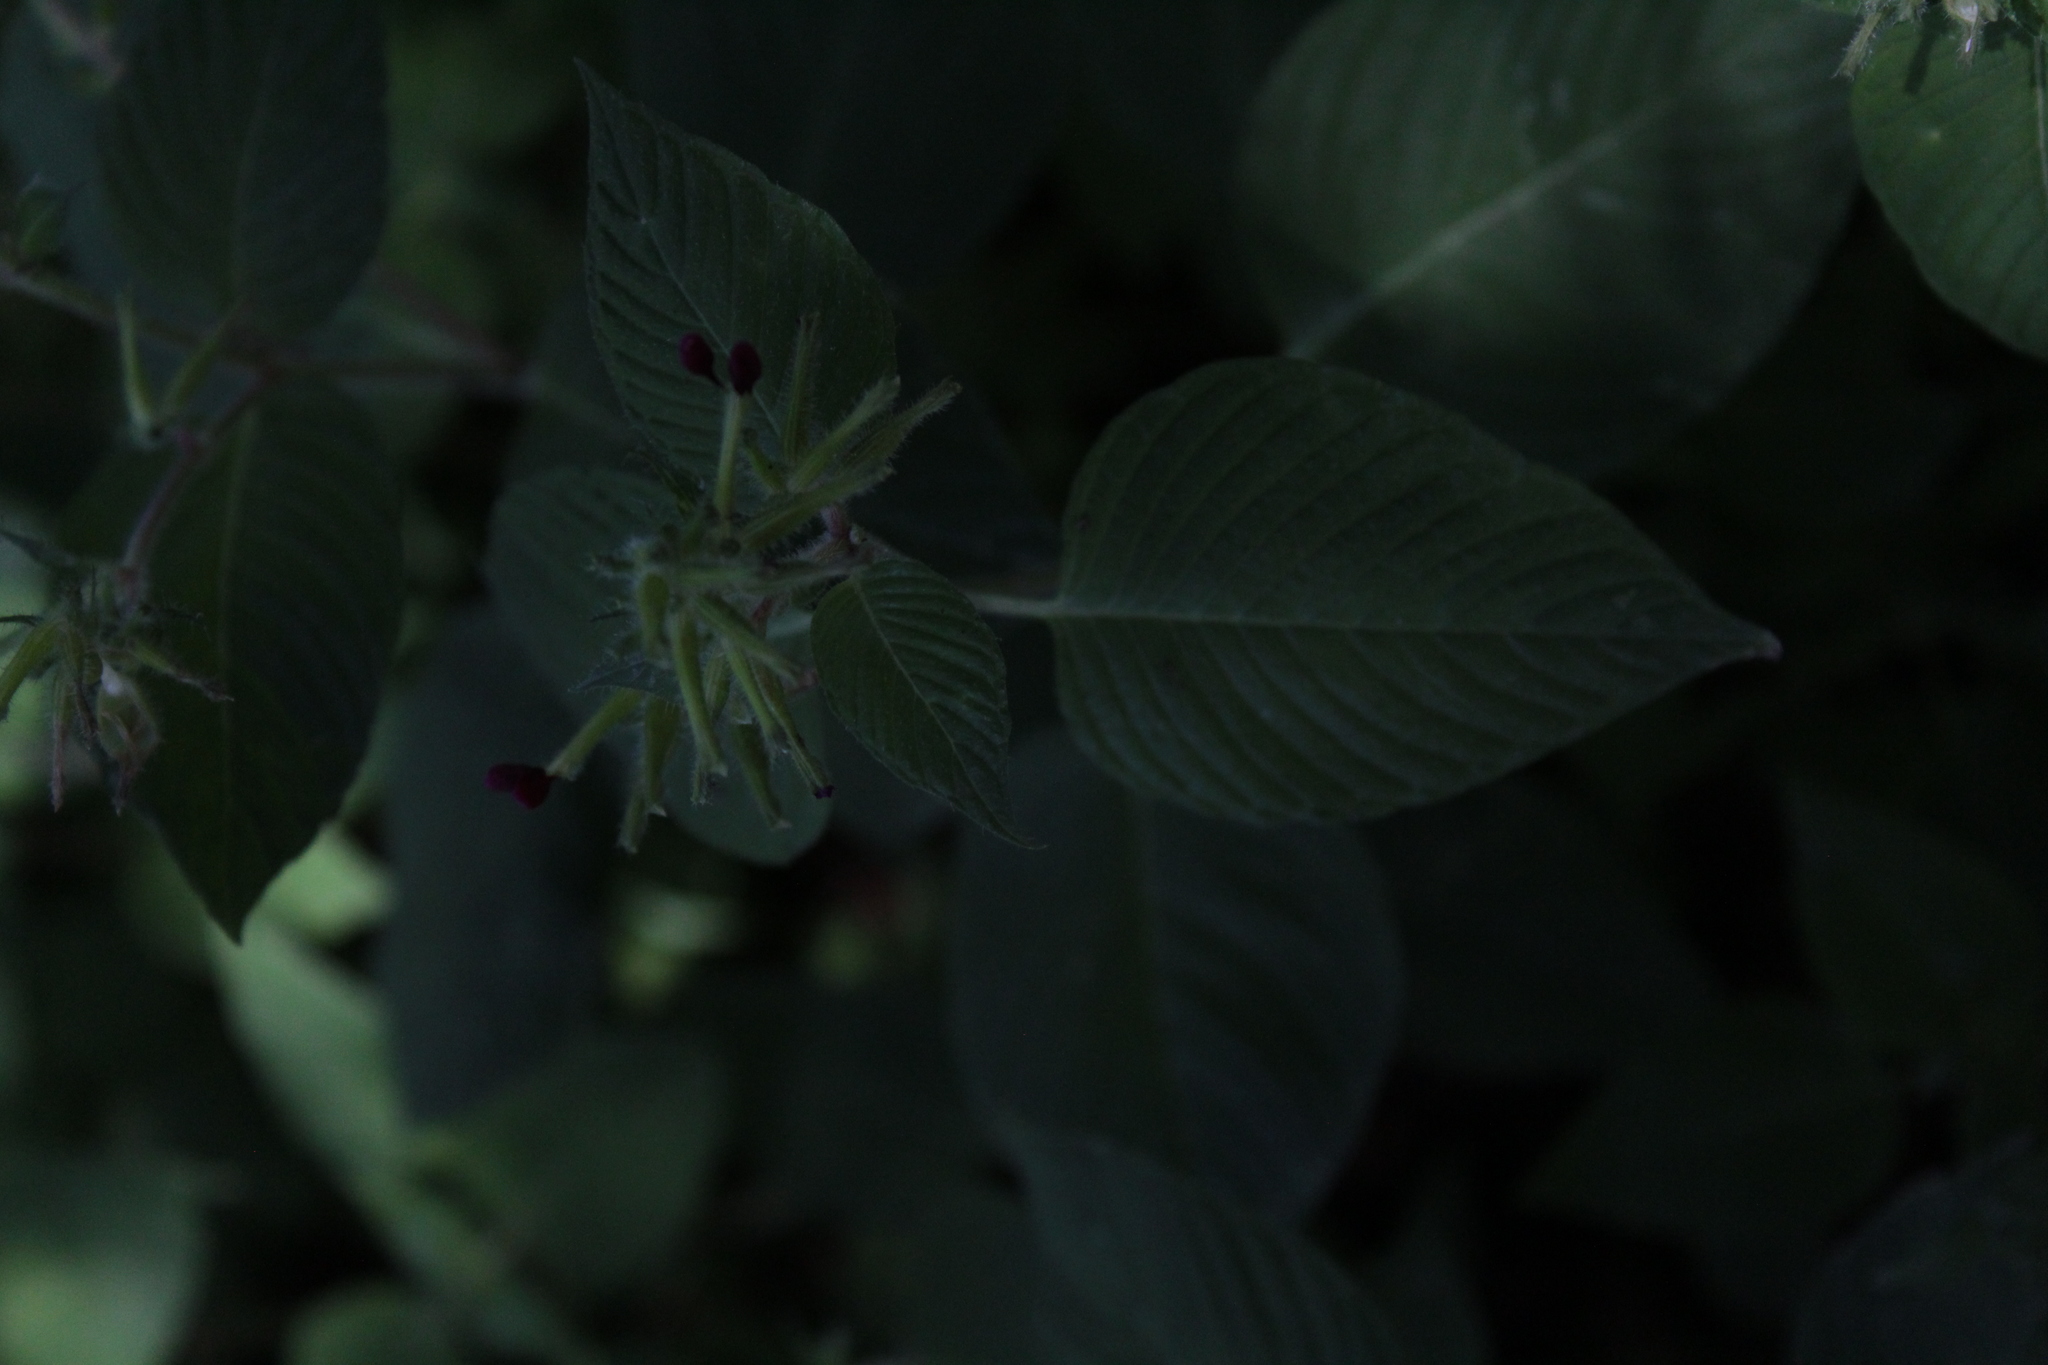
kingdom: Plantae
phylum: Tracheophyta
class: Magnoliopsida
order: Myrtales
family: Lythraceae
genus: Cuphea
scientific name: Cuphea paucipetala
